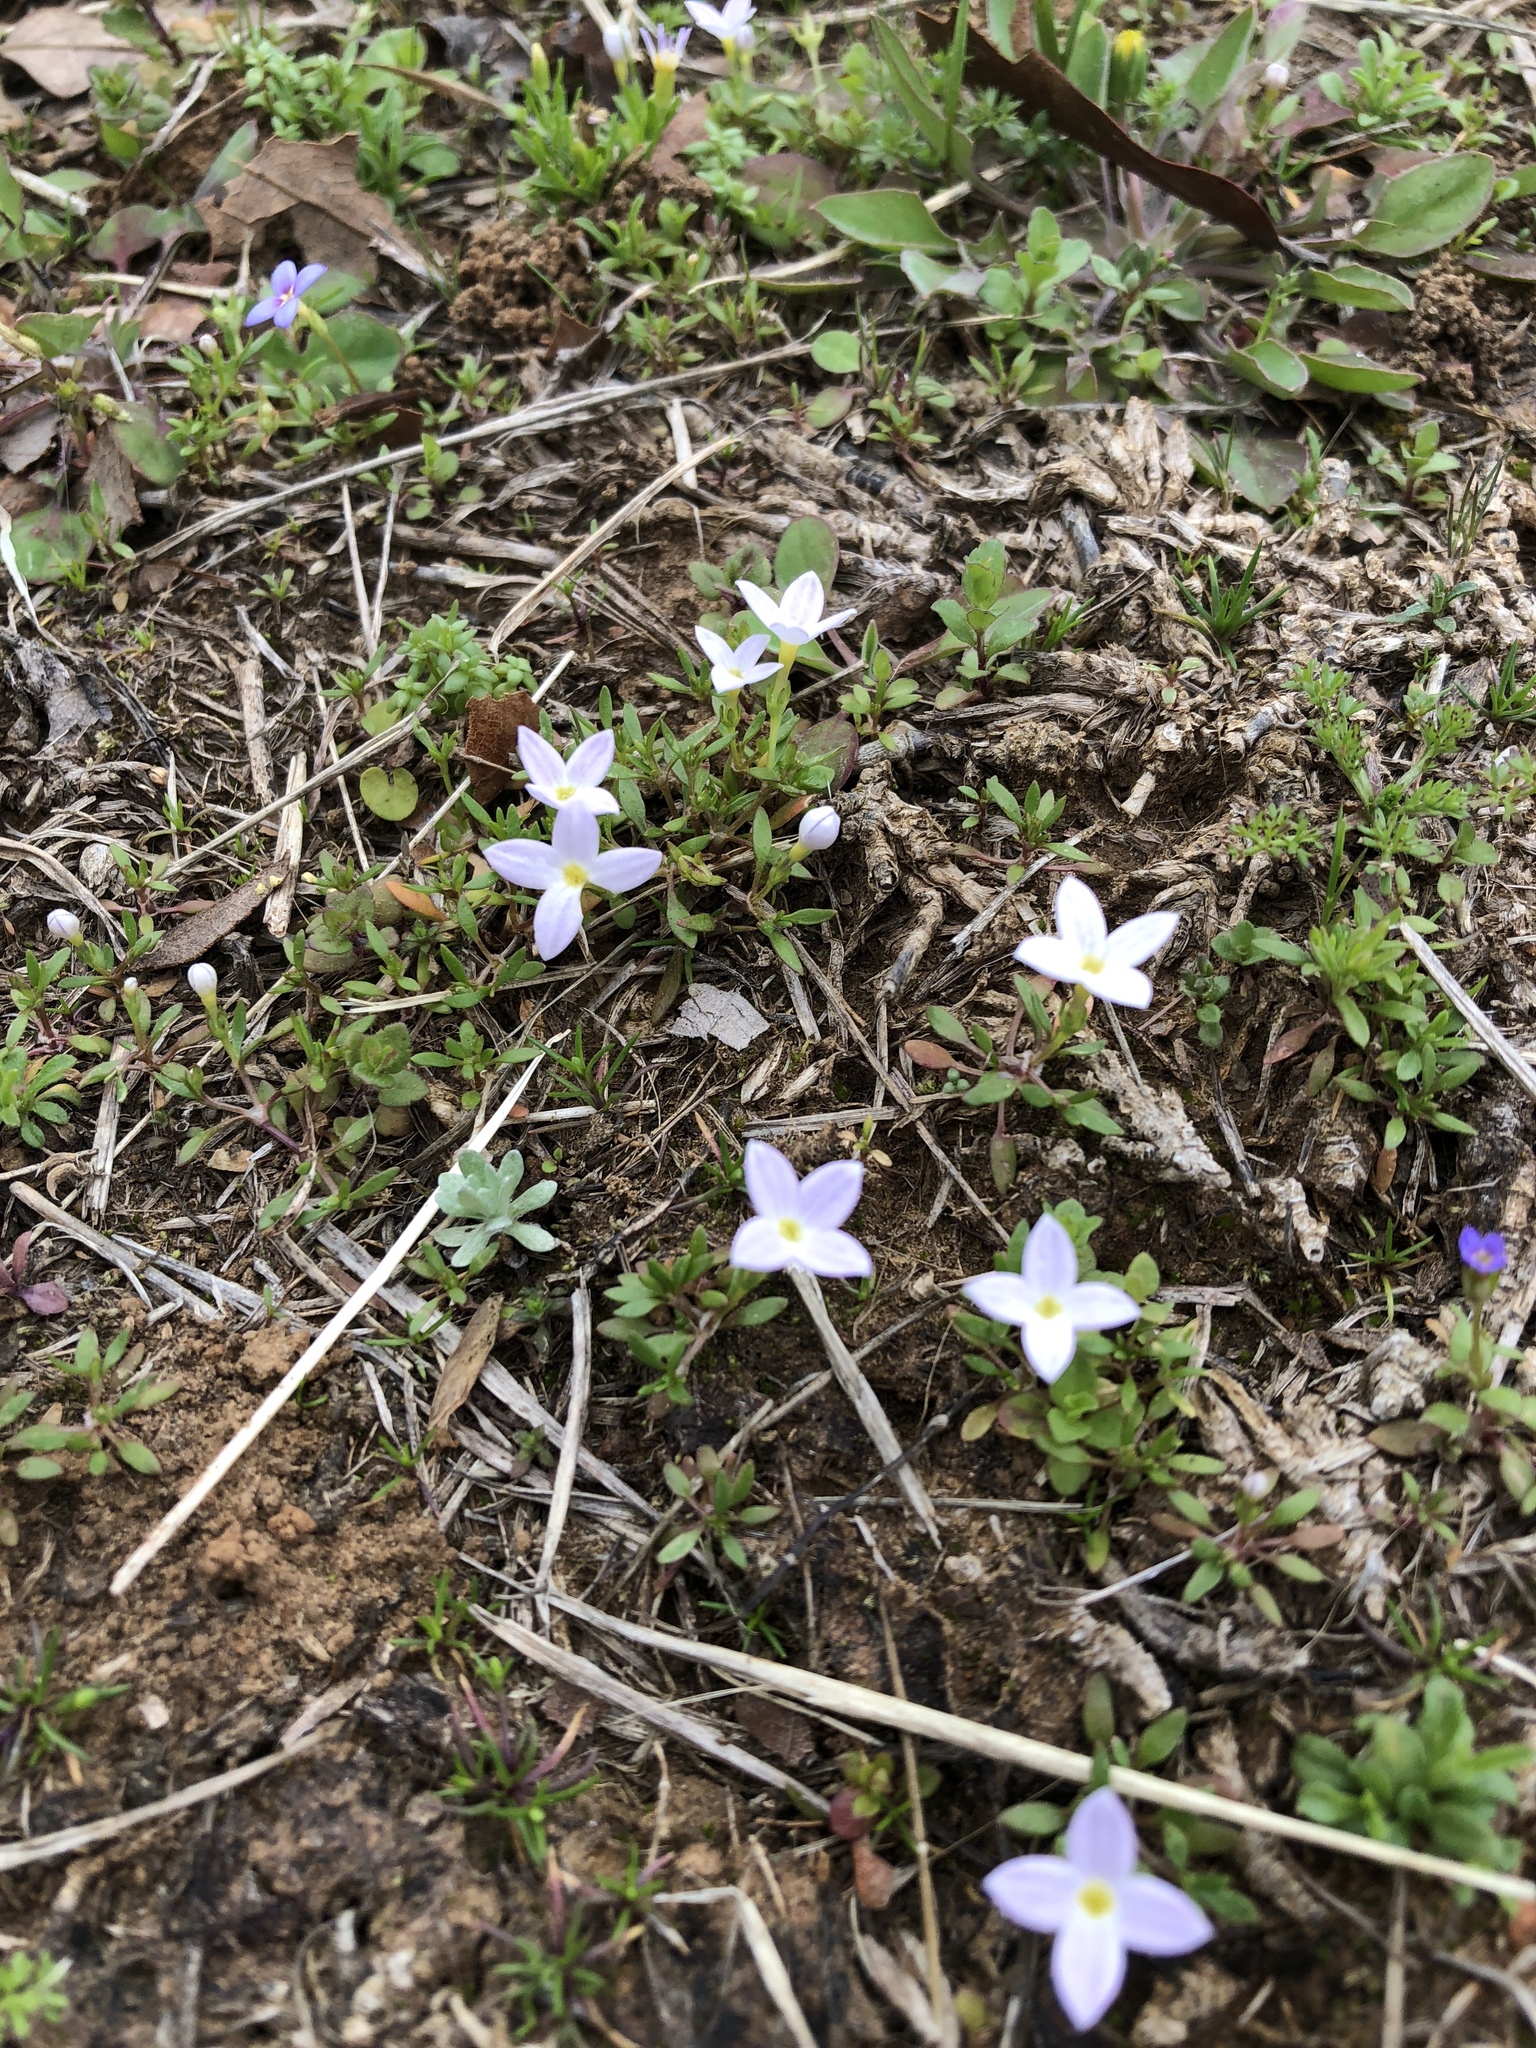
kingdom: Plantae
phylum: Tracheophyta
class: Magnoliopsida
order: Gentianales
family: Rubiaceae
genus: Houstonia
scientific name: Houstonia rosea
